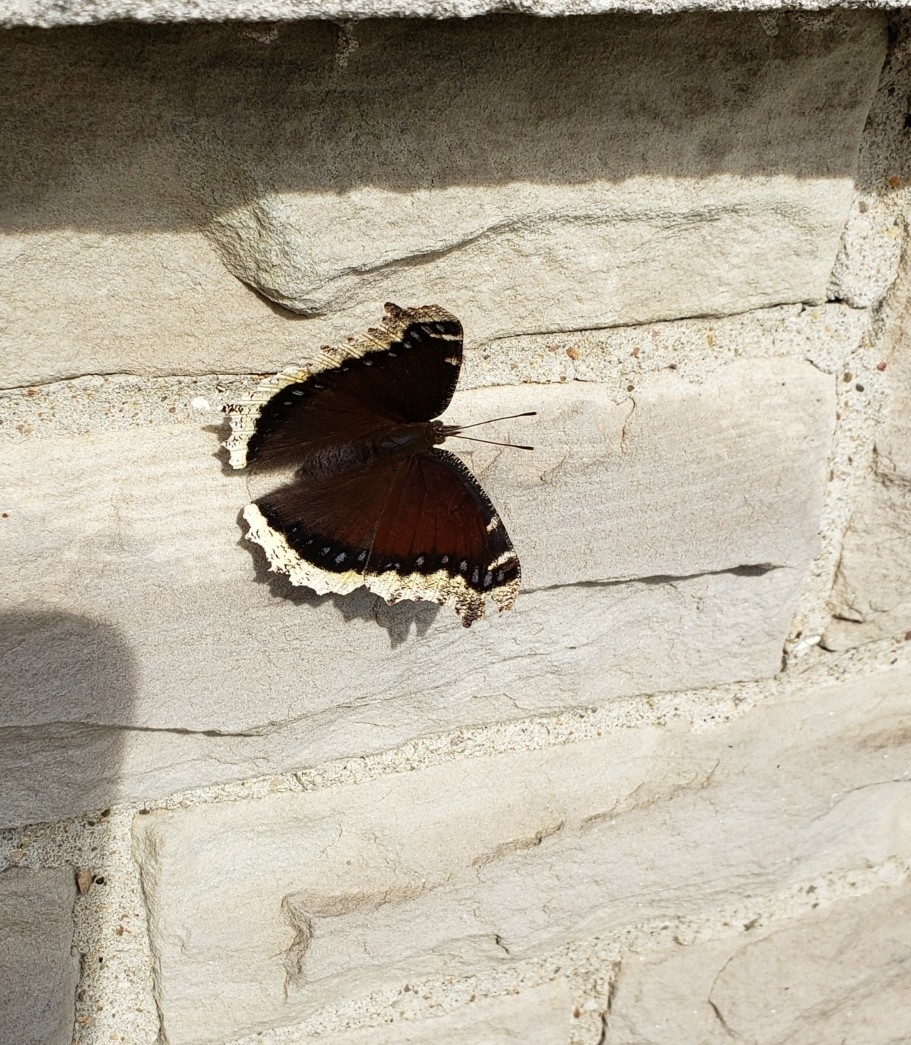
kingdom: Animalia
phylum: Arthropoda
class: Insecta
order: Lepidoptera
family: Nymphalidae
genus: Nymphalis
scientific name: Nymphalis antiopa
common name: Camberwell beauty
